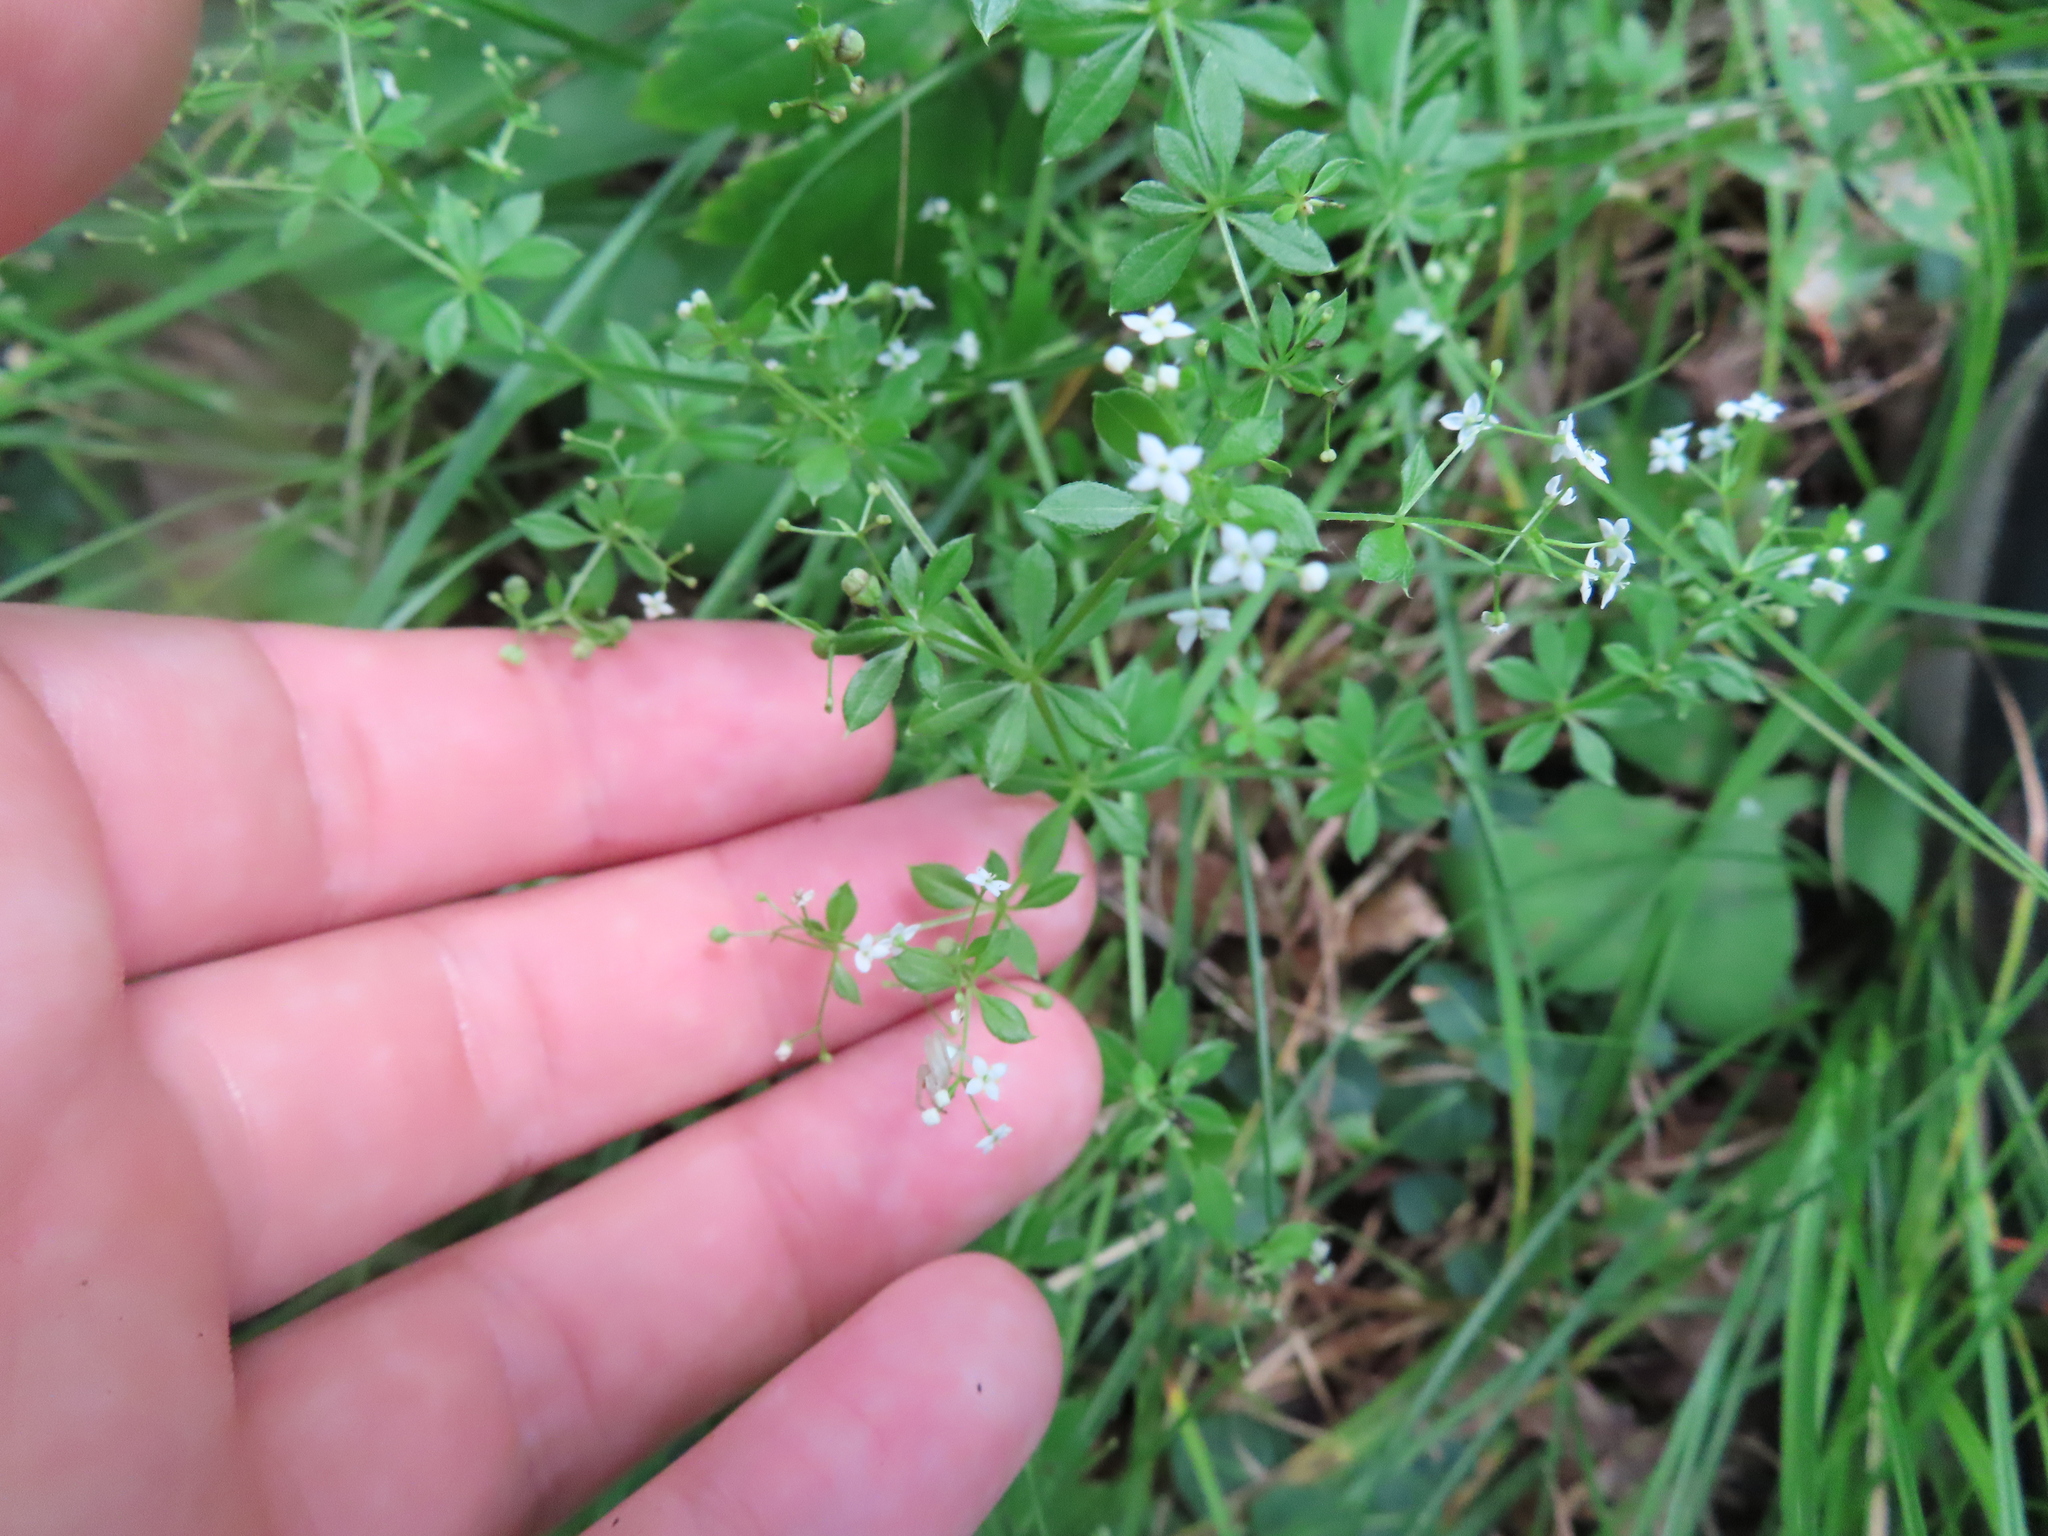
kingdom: Plantae
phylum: Tracheophyta
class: Magnoliopsida
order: Gentianales
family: Rubiaceae
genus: Galium
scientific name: Galium asprellum
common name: Rough bedstraw
